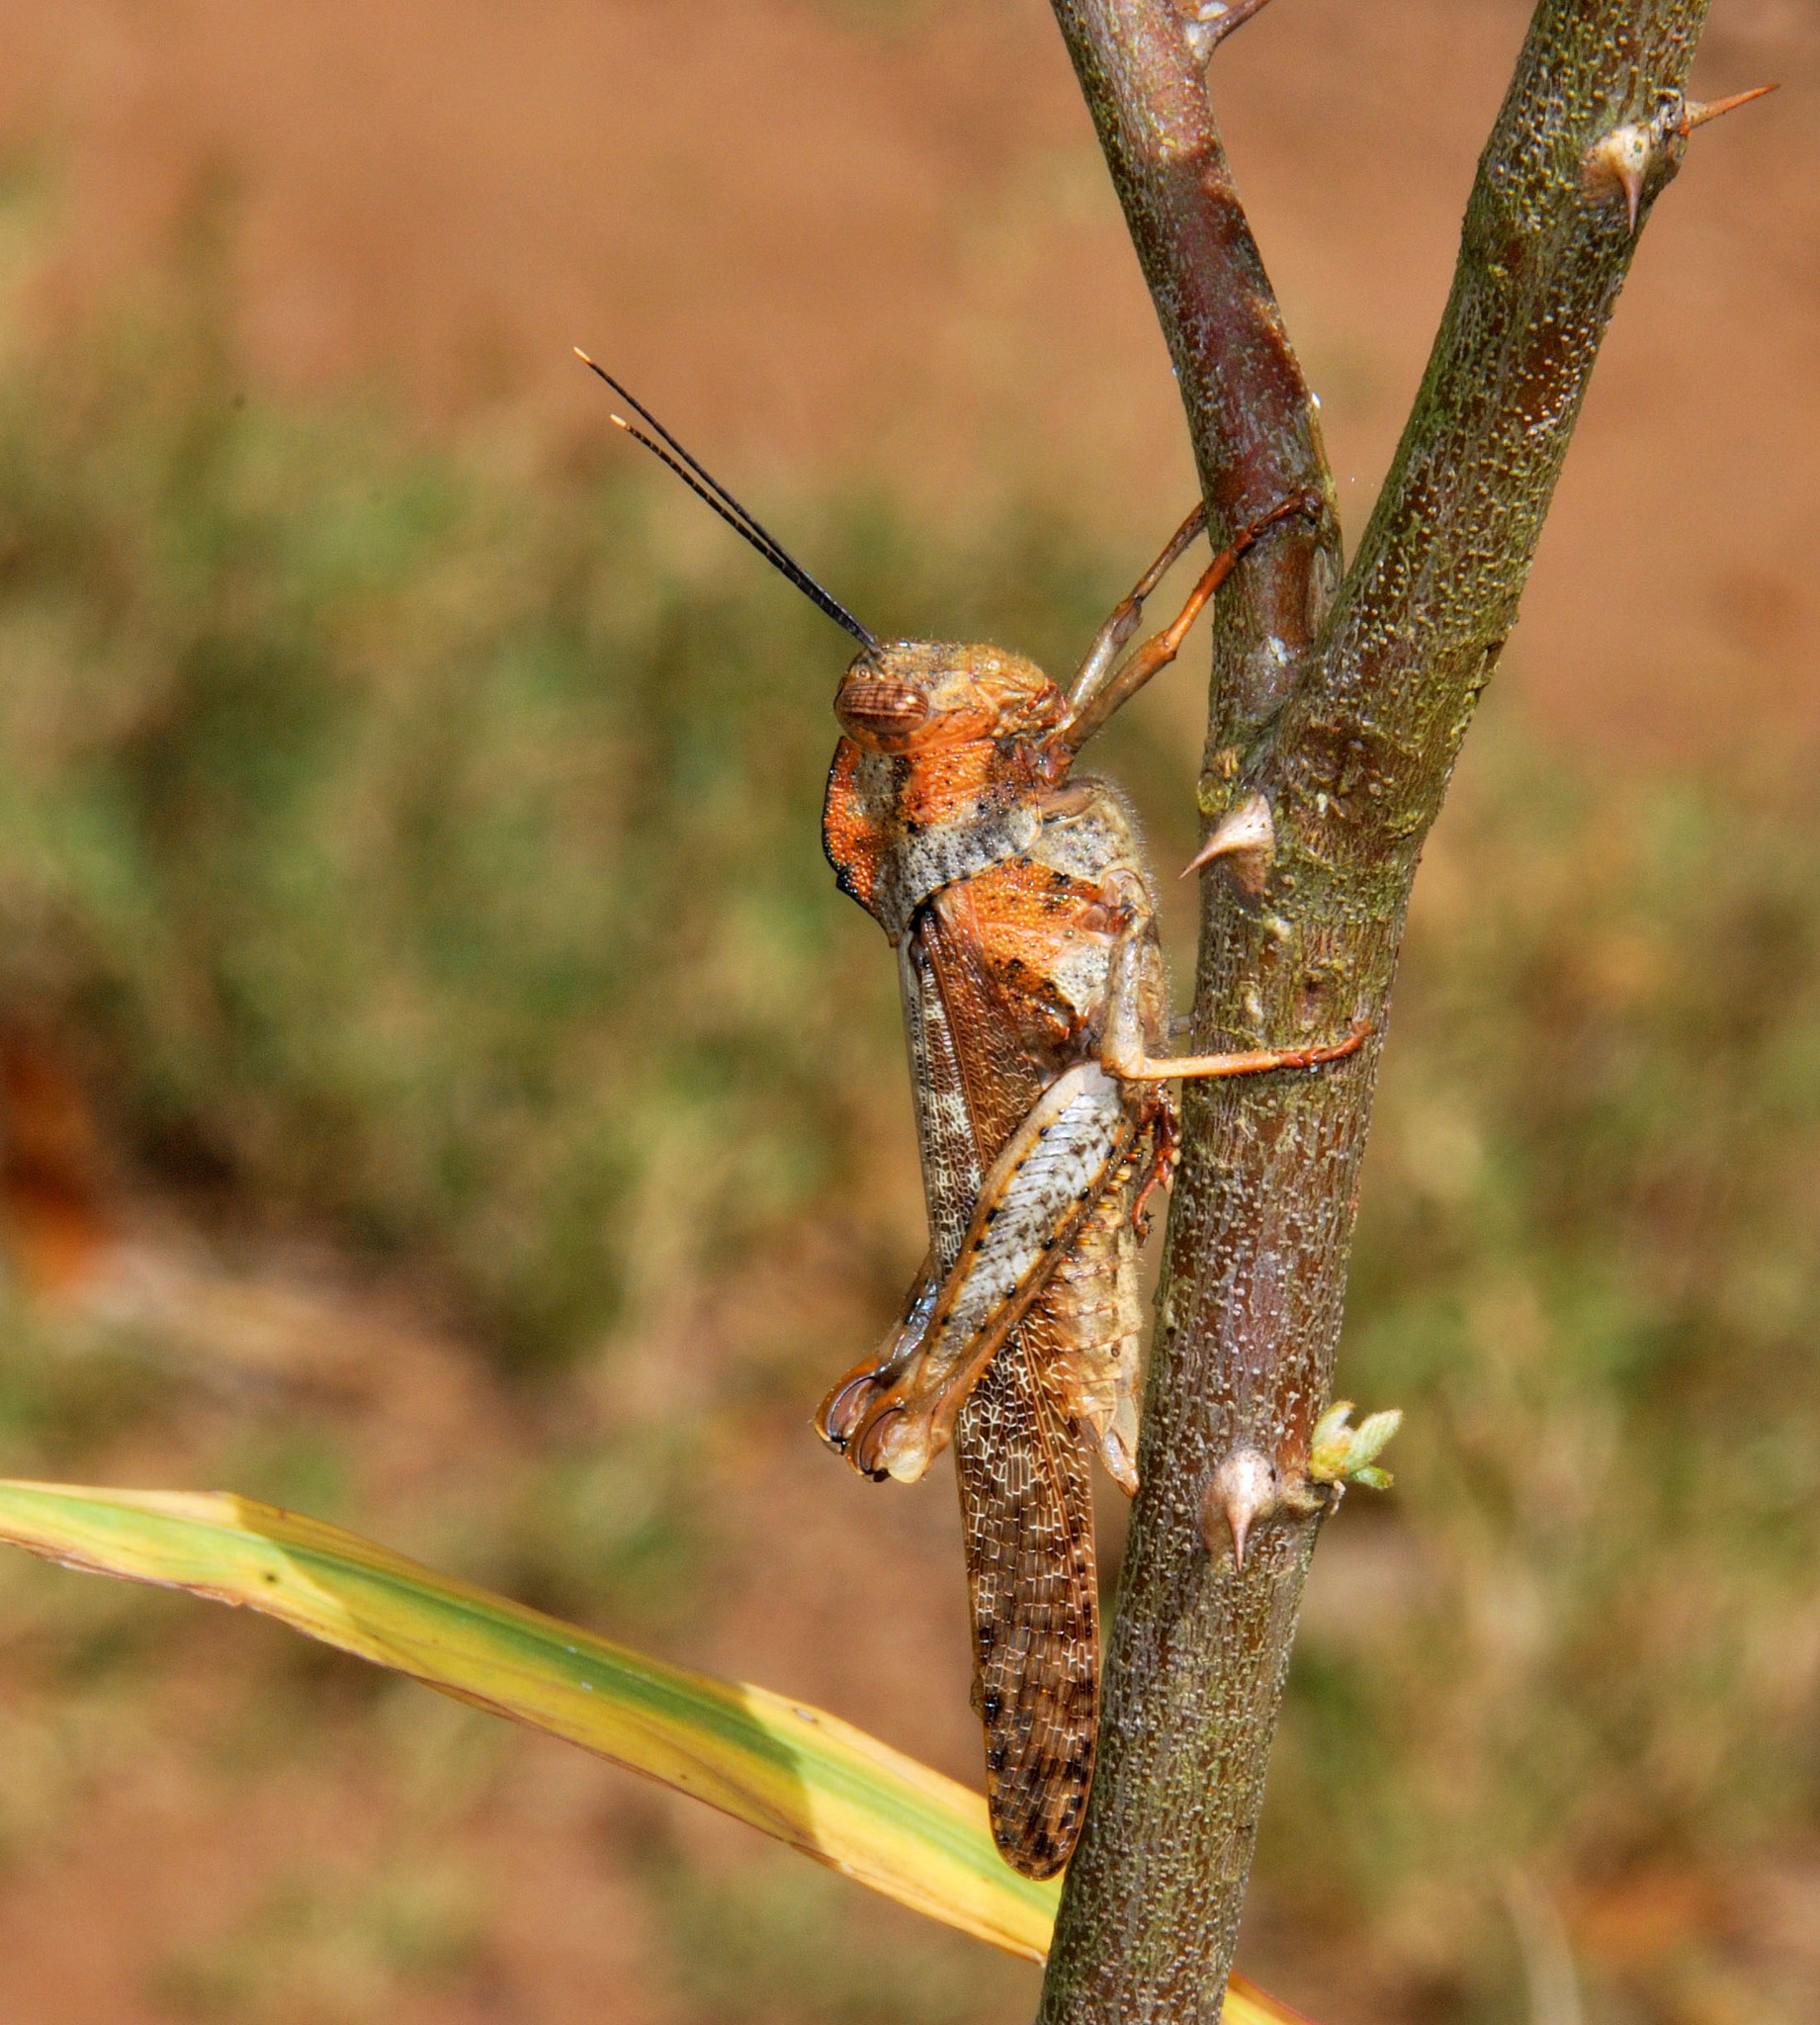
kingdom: Animalia
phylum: Arthropoda
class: Insecta
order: Orthoptera
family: Acrididae
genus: Abisares
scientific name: Abisares viridipenne
